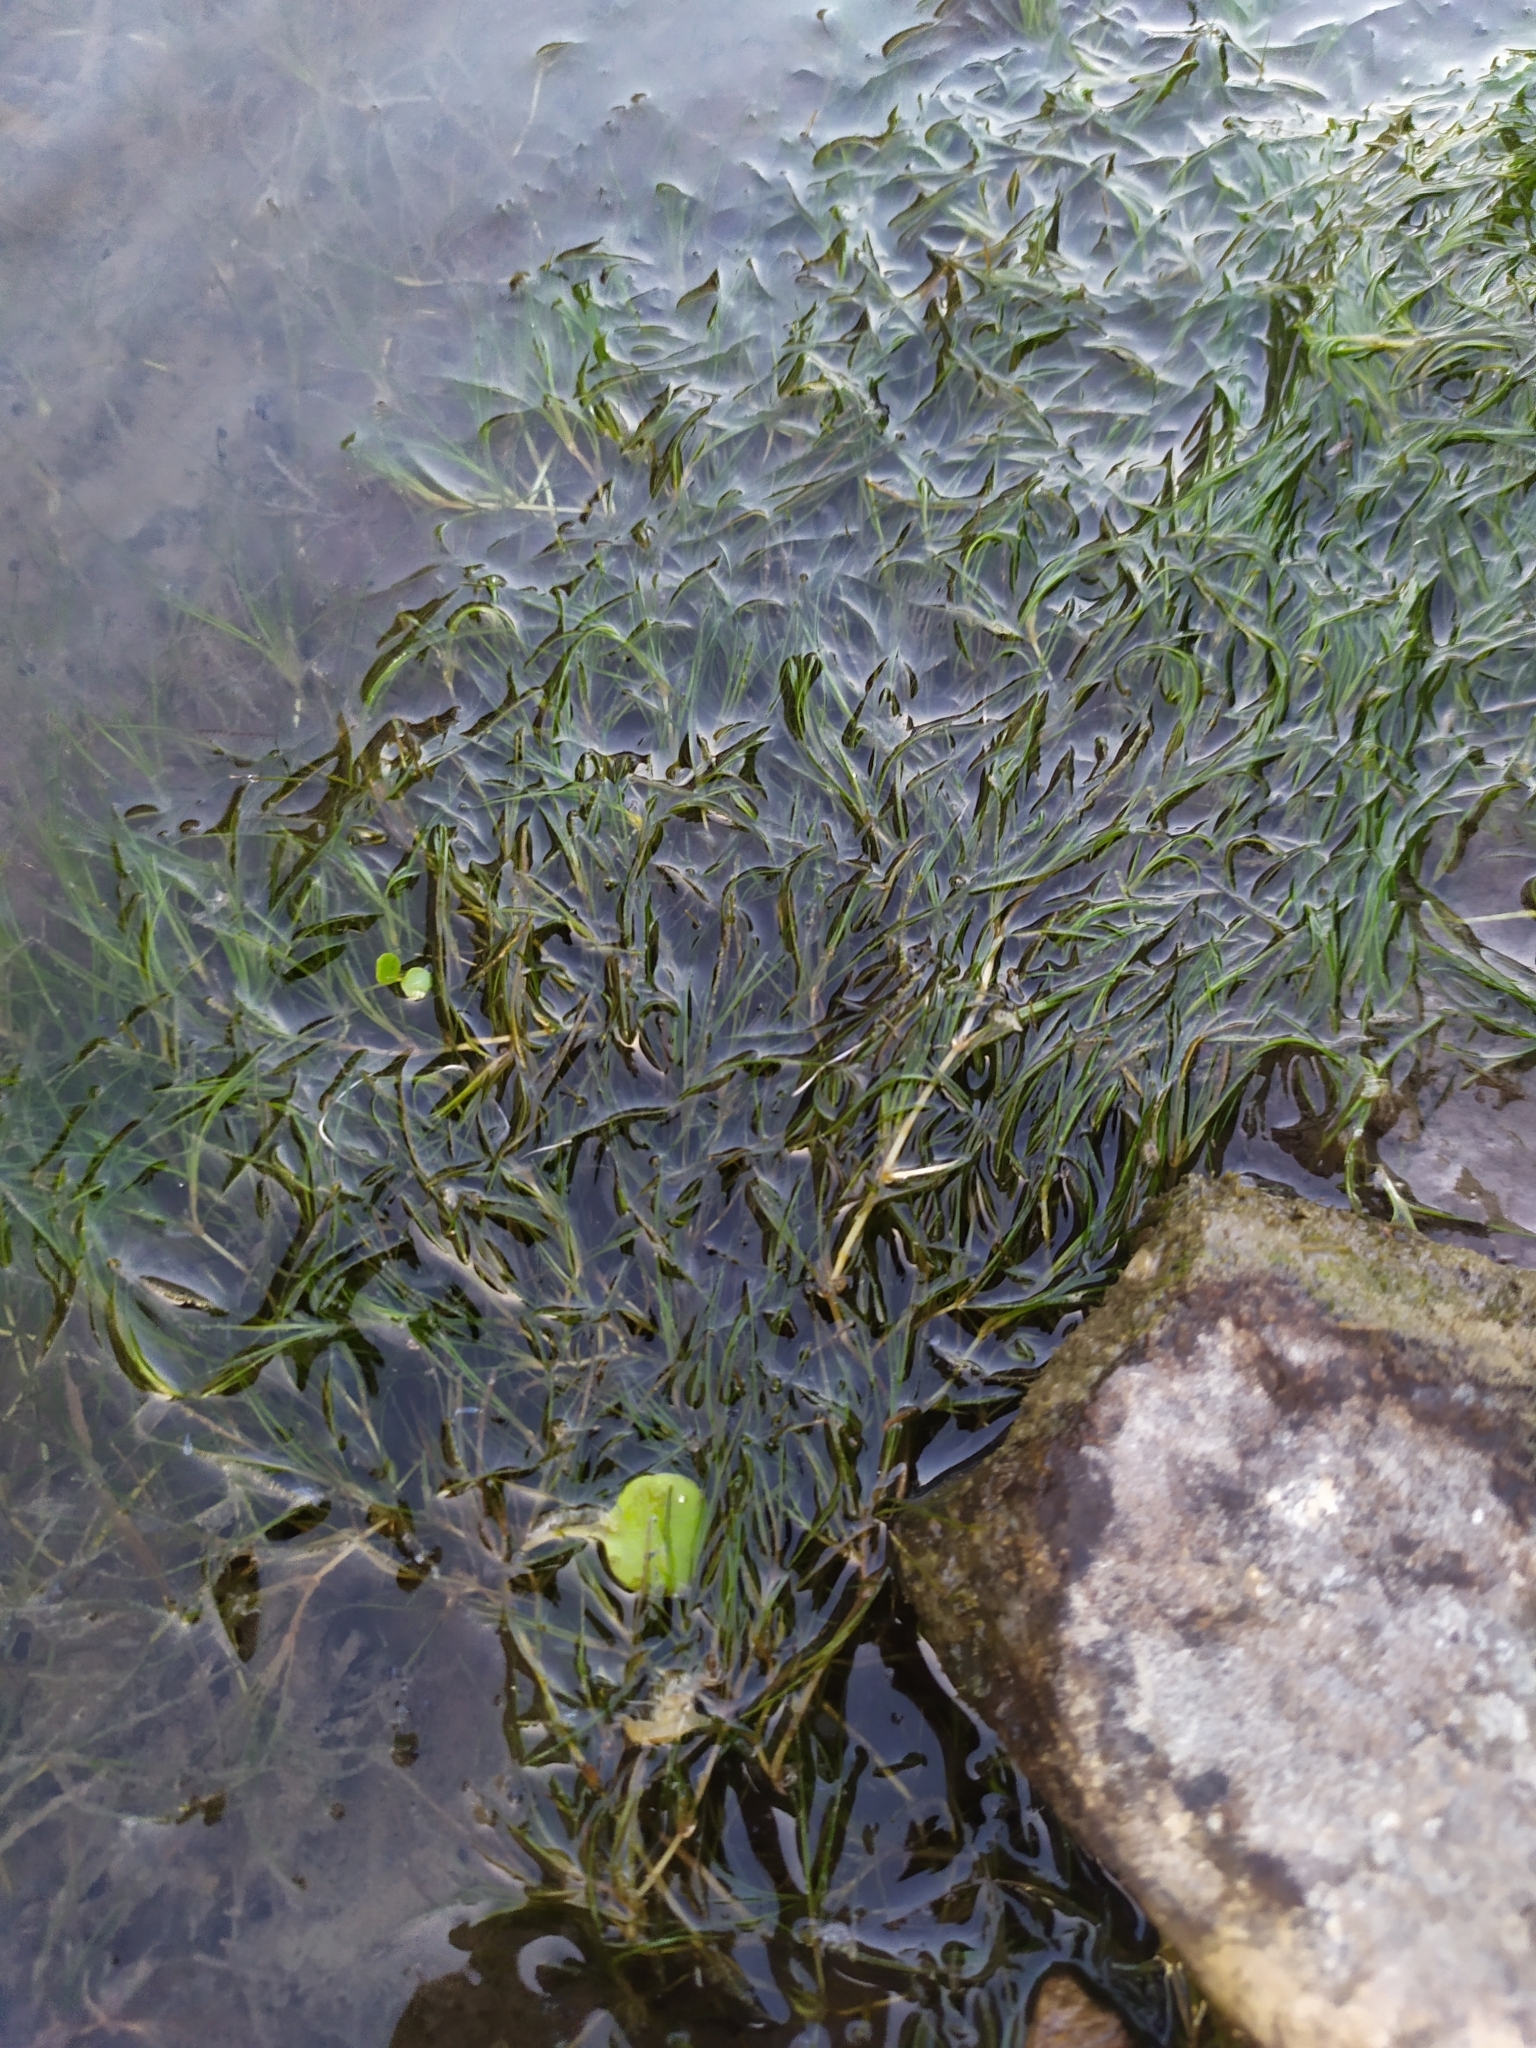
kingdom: Plantae
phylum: Tracheophyta
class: Liliopsida
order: Alismatales
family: Potamogetonaceae
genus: Zannichellia
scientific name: Zannichellia palustris
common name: Horned pondweed
